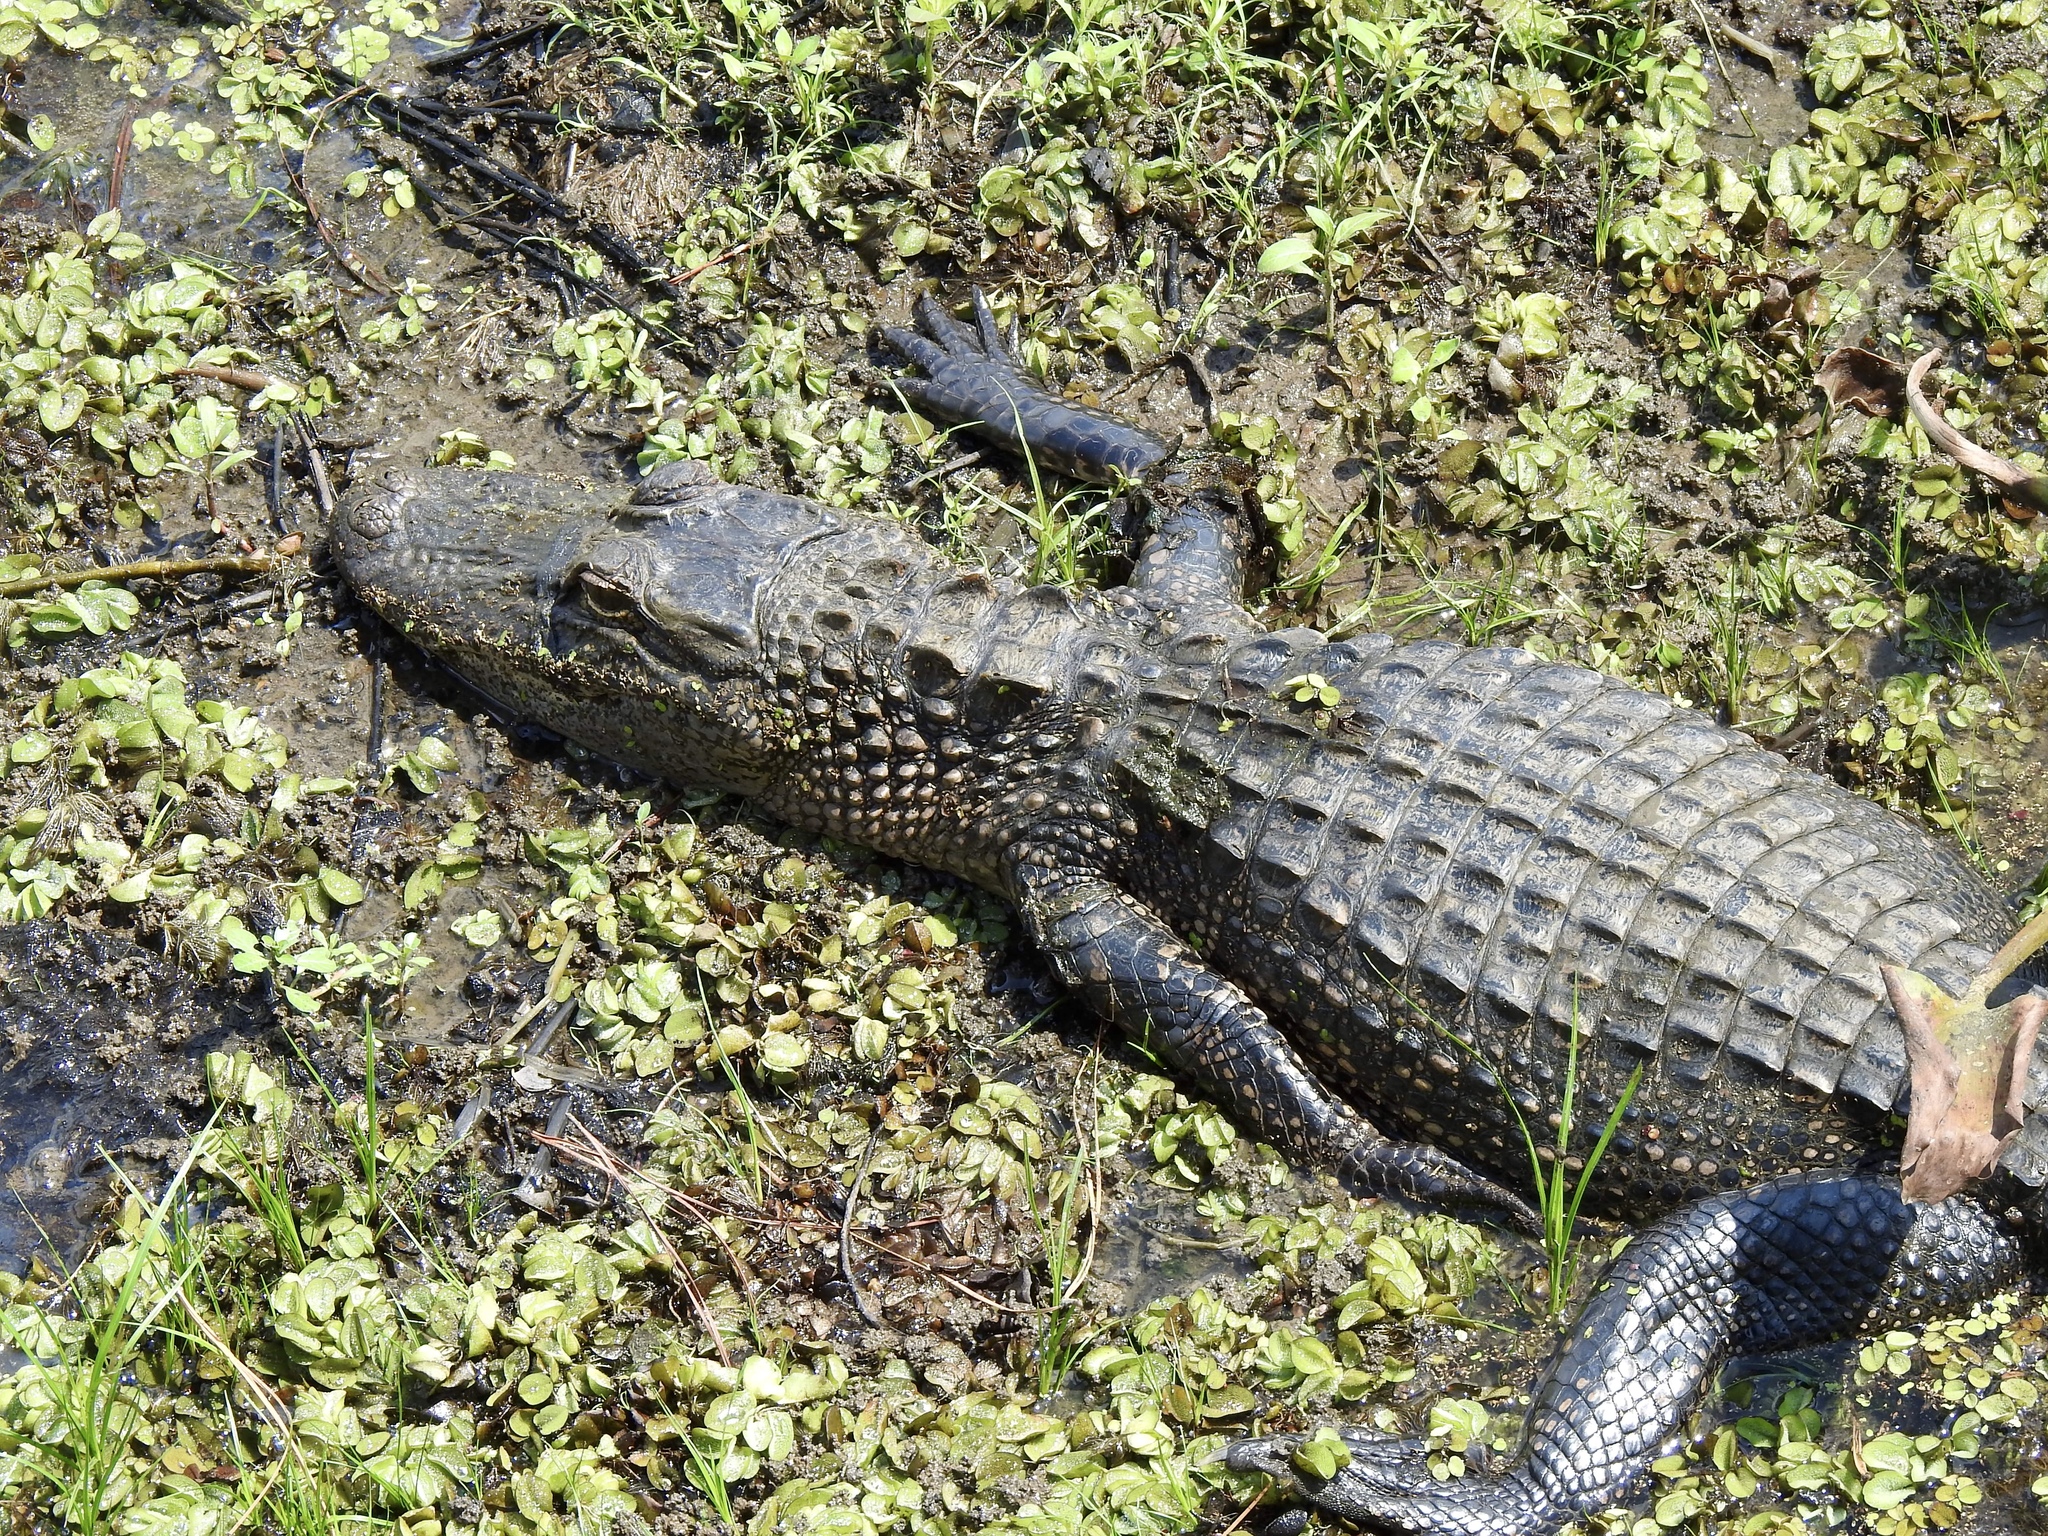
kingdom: Animalia
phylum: Chordata
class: Crocodylia
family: Alligatoridae
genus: Alligator
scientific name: Alligator mississippiensis
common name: American alligator
